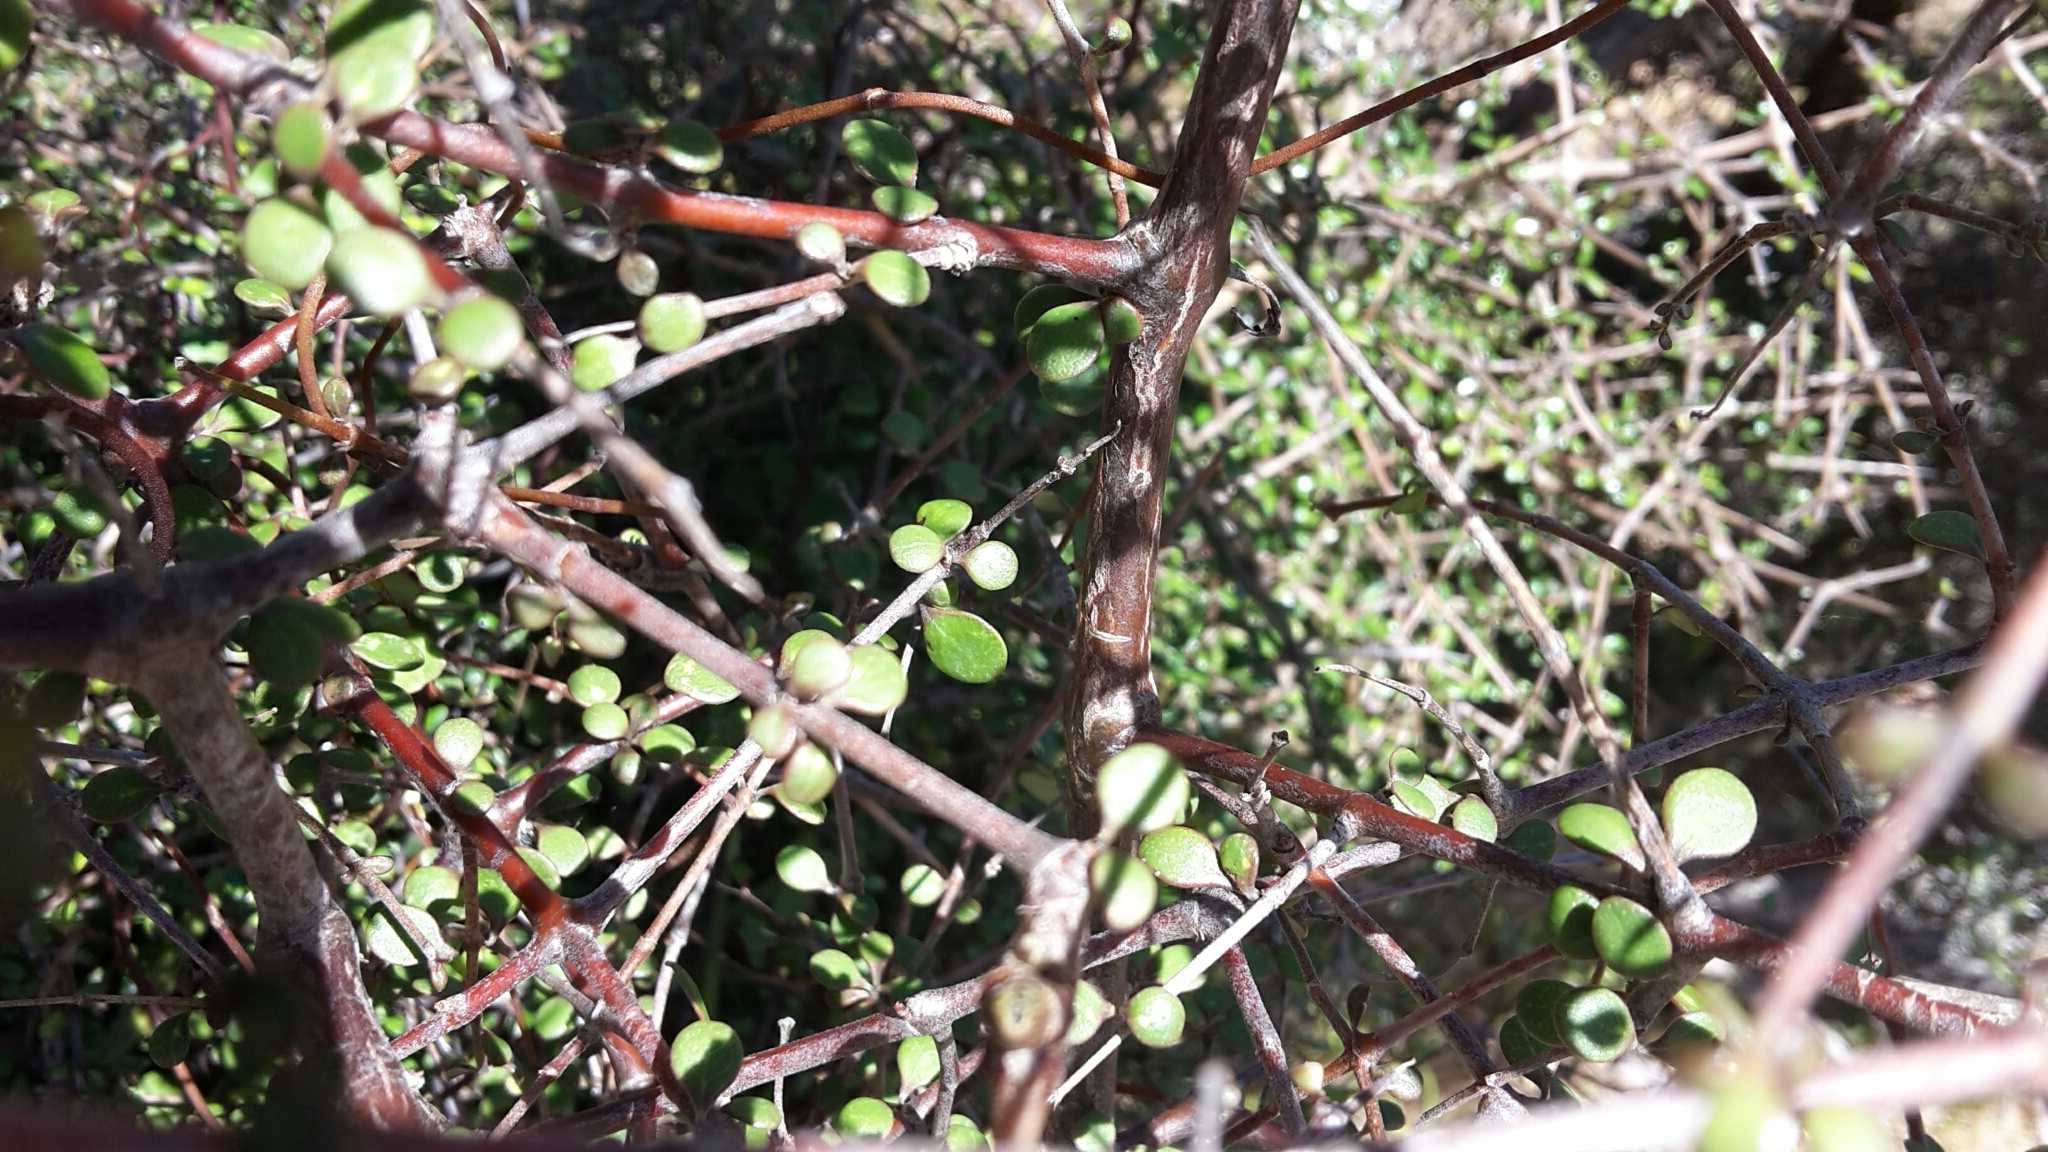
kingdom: Plantae
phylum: Tracheophyta
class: Magnoliopsida
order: Gentianales
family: Rubiaceae
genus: Coprosma
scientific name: Coprosma crassifolia
